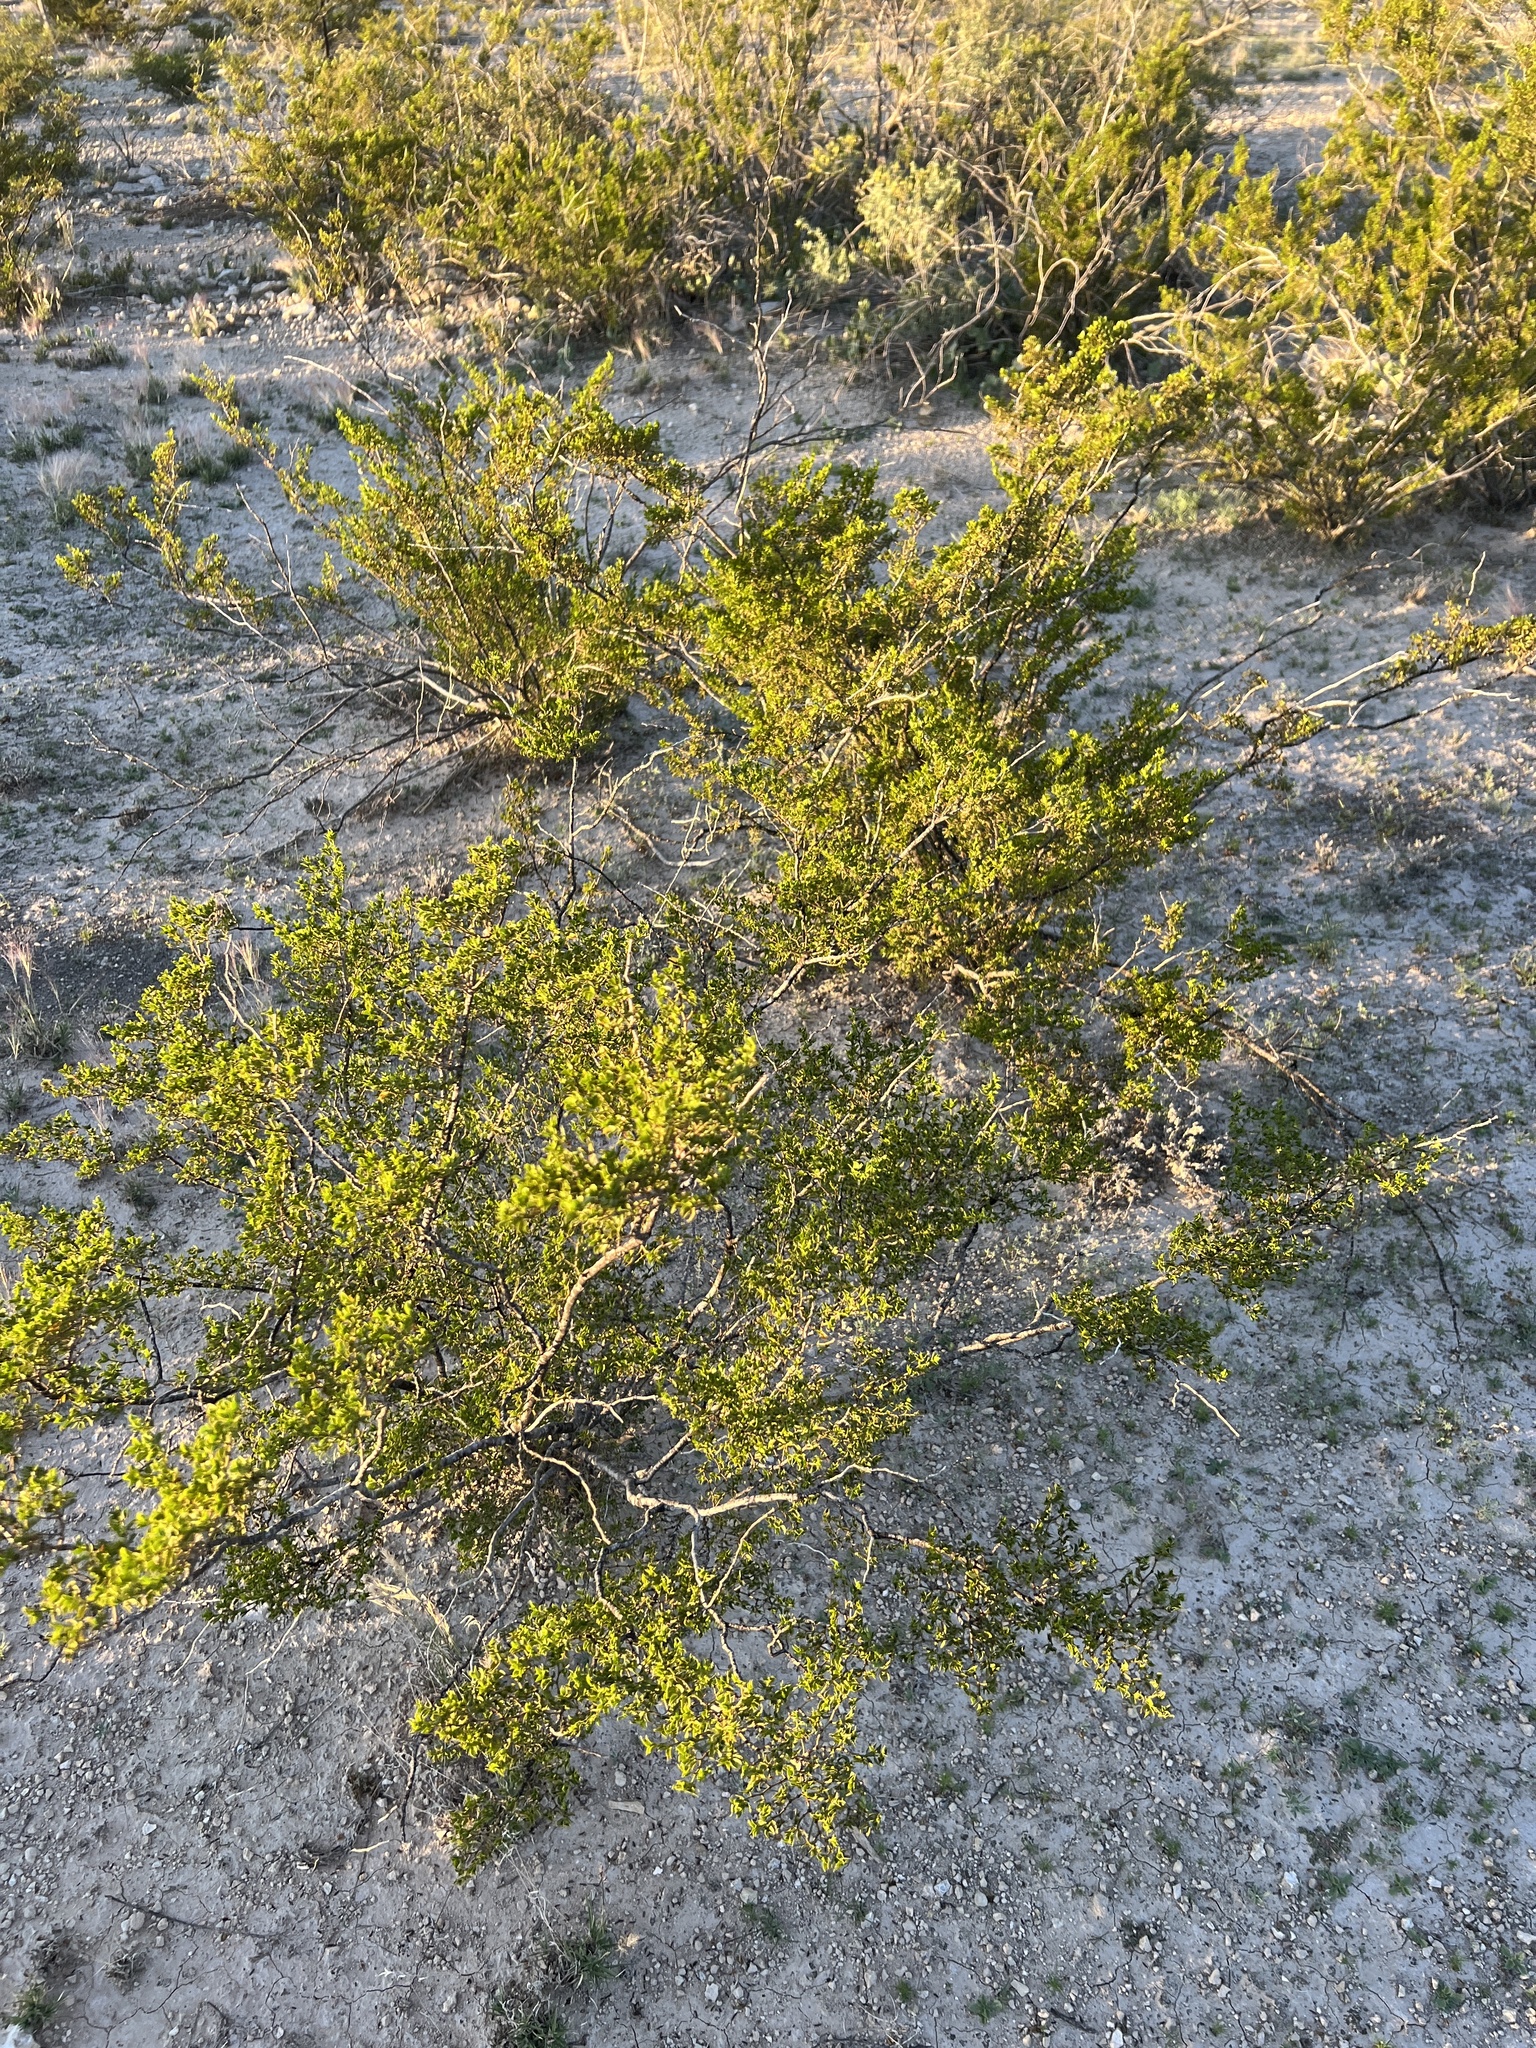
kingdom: Plantae
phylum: Tracheophyta
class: Magnoliopsida
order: Zygophyllales
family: Zygophyllaceae
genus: Larrea
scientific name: Larrea tridentata
